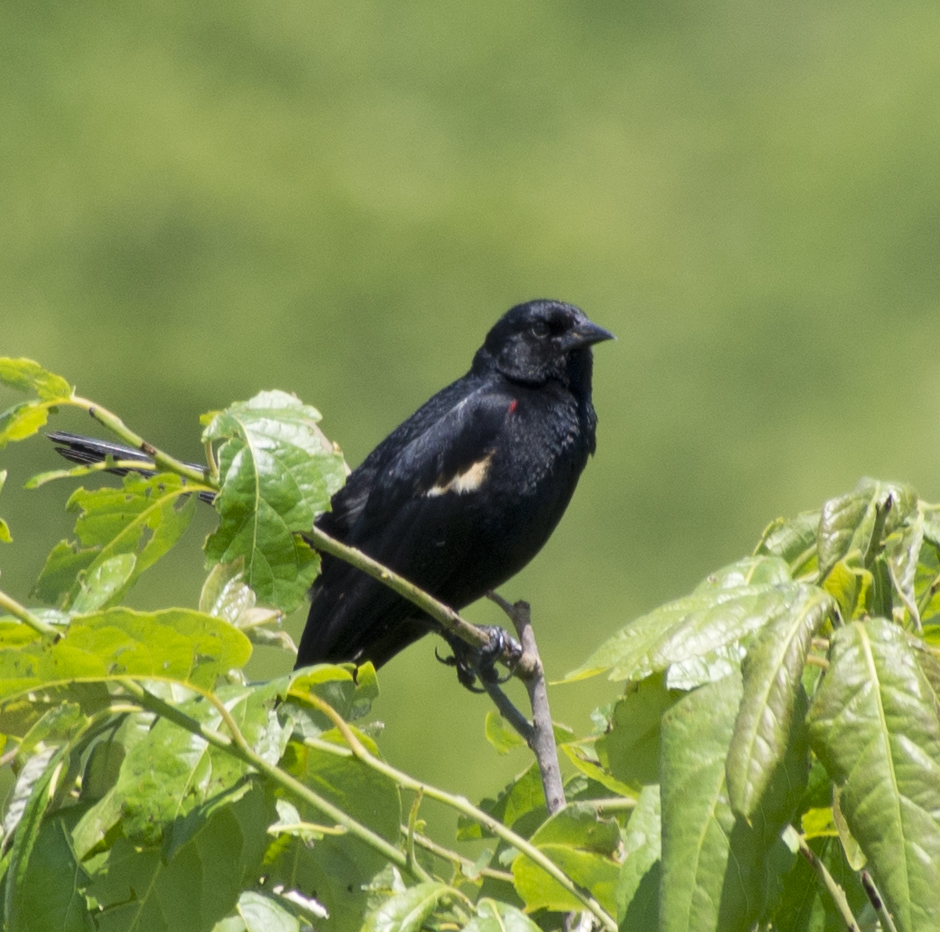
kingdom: Animalia
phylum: Chordata
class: Aves
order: Passeriformes
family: Icteridae
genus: Agelaius
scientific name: Agelaius phoeniceus
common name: Red-winged blackbird
